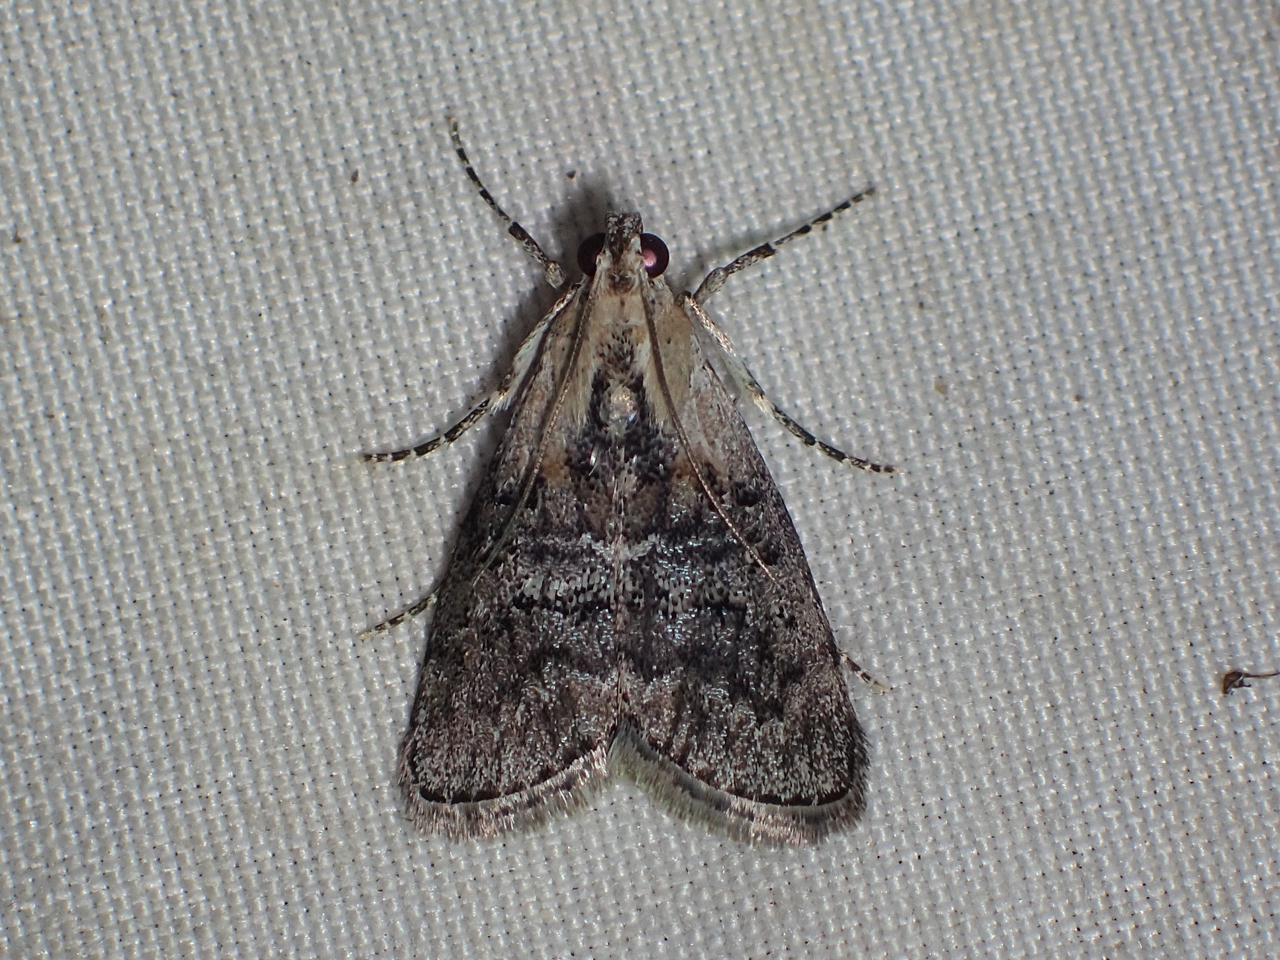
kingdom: Animalia
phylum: Arthropoda
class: Insecta
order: Lepidoptera
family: Pyralidae
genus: Pococera
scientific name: Pococera expandens
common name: Striped oak webworm moth
